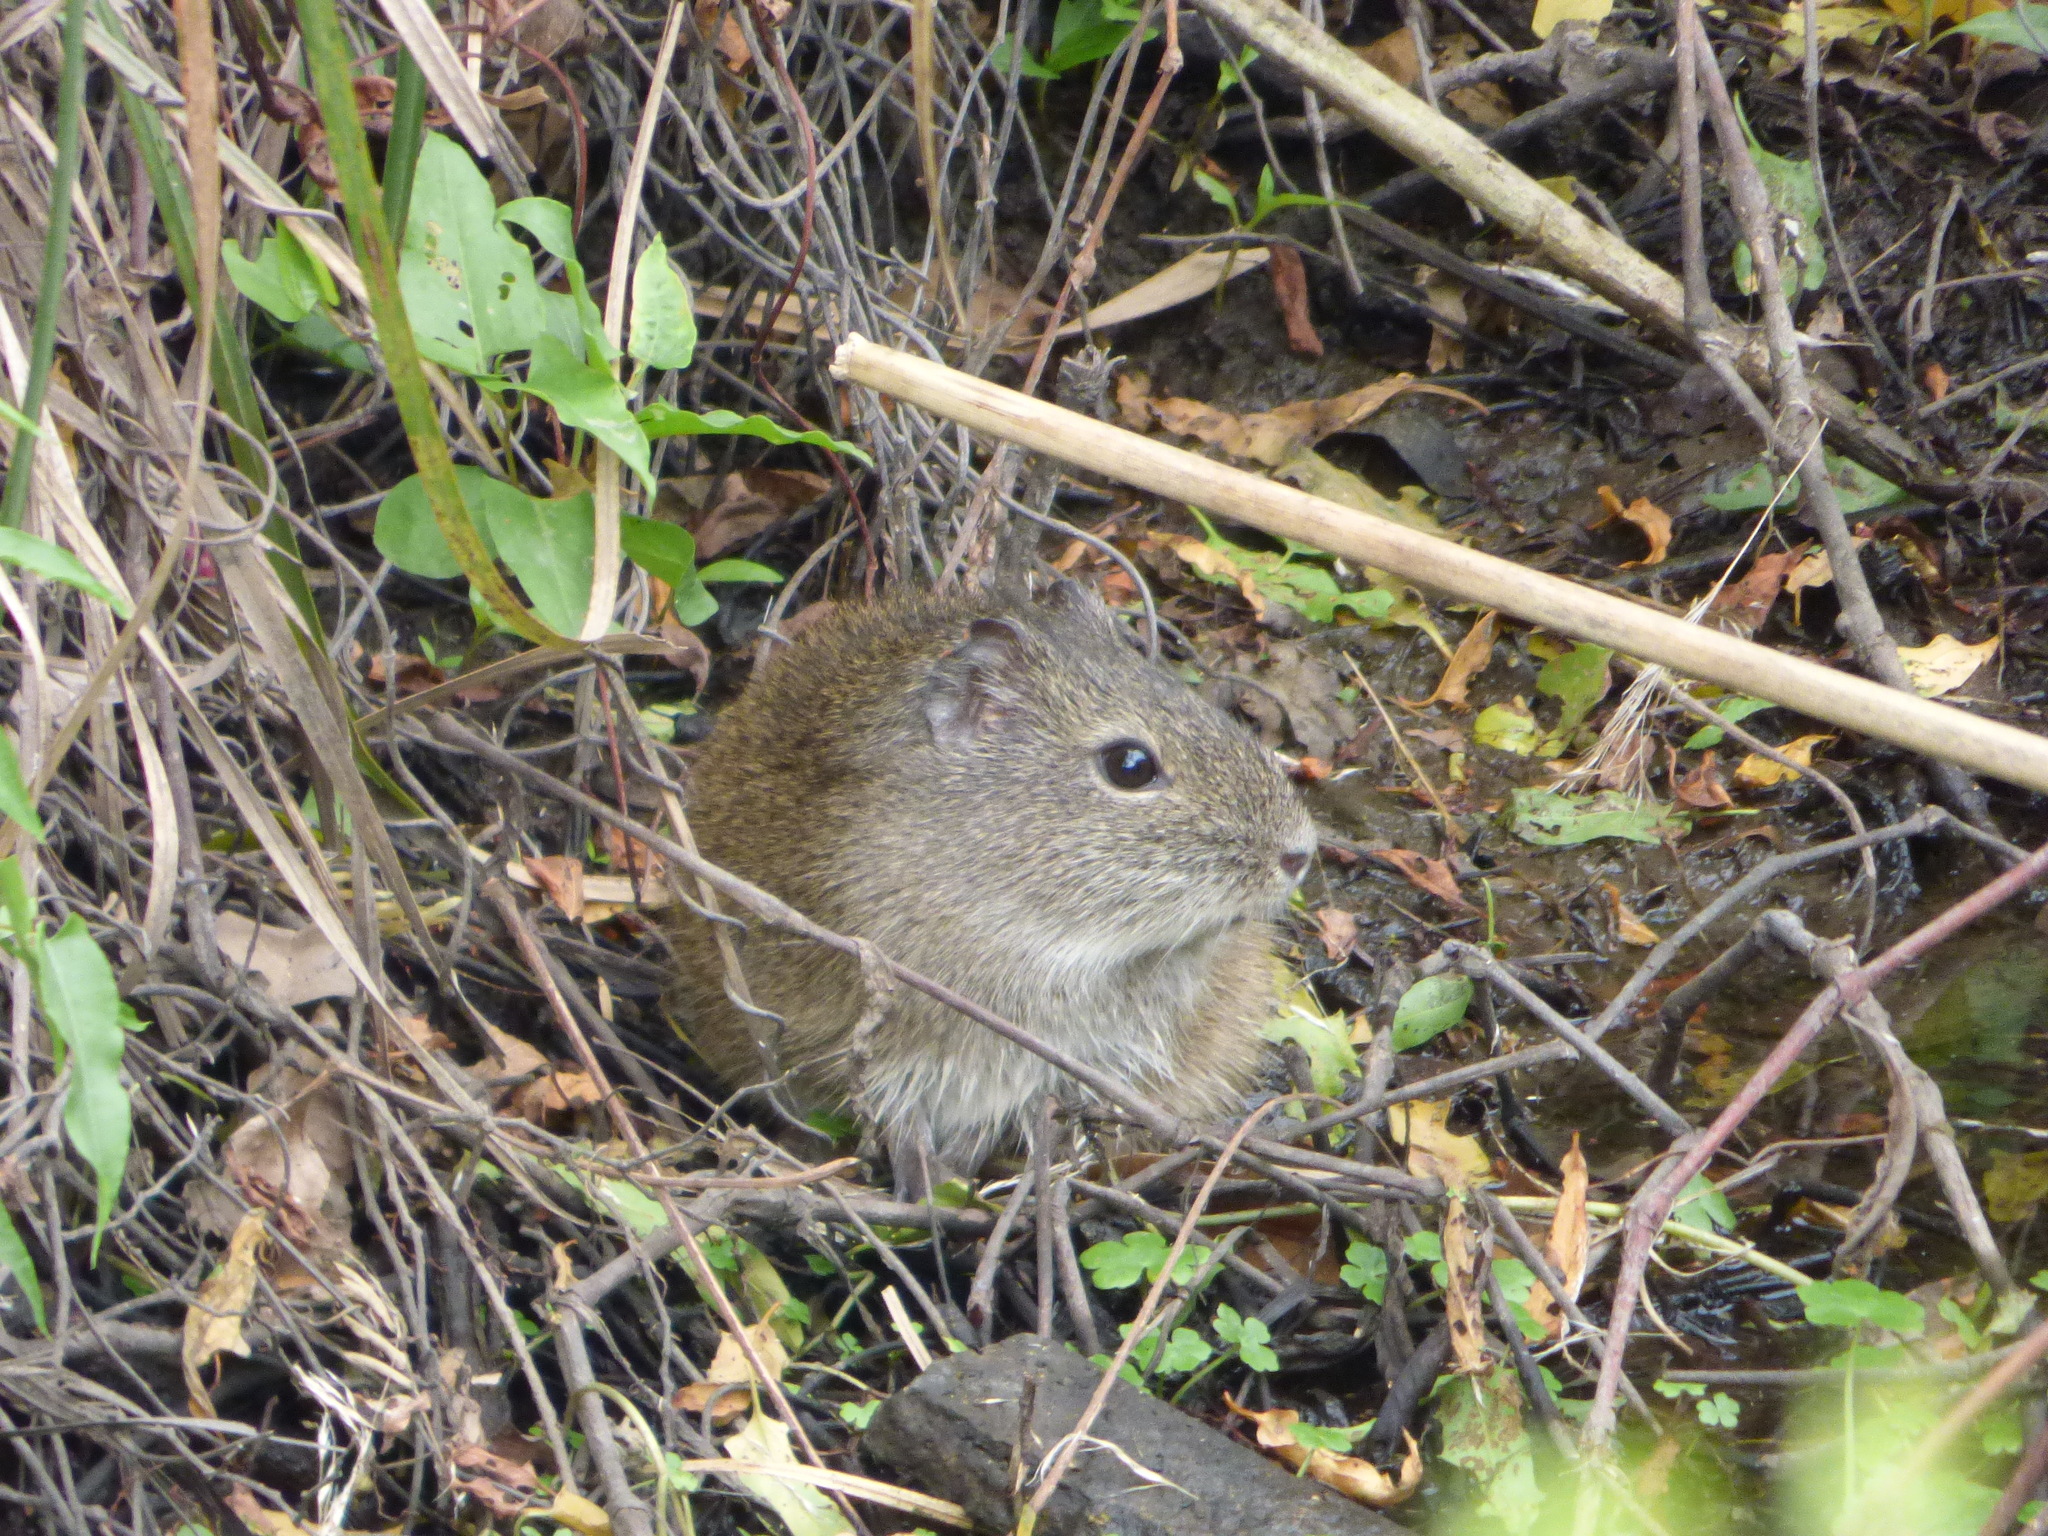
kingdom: Animalia
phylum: Chordata
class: Mammalia
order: Rodentia
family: Caviidae
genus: Cavia
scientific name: Cavia aperea
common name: Brazilian guinea pig
